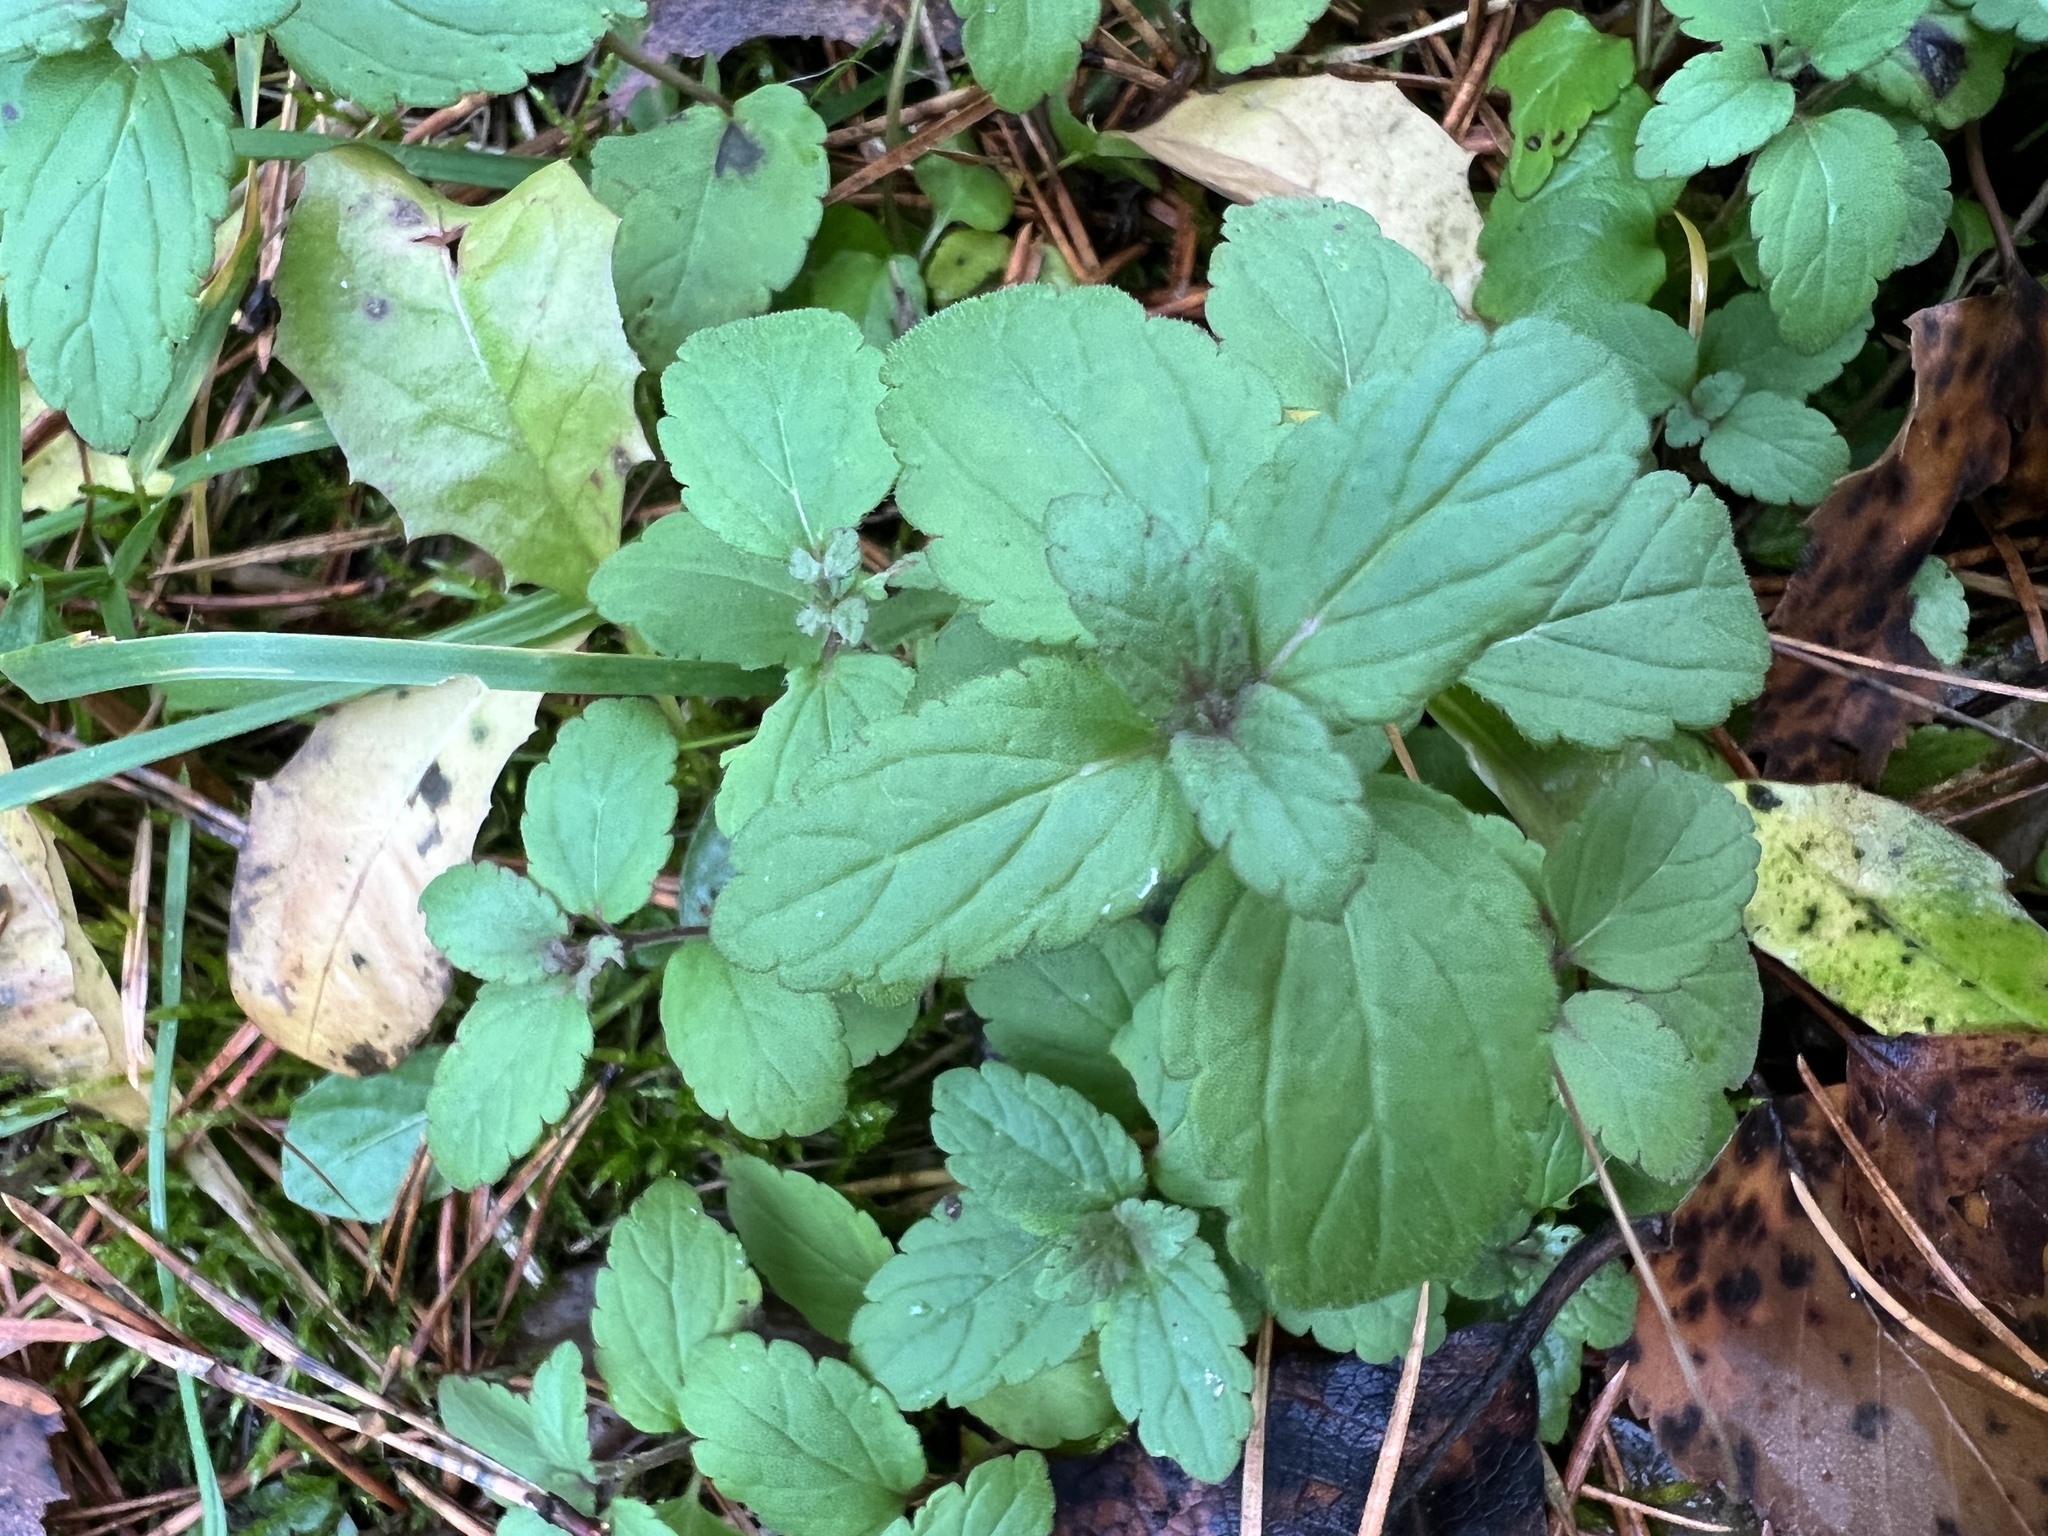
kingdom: Plantae
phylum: Tracheophyta
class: Magnoliopsida
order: Lamiales
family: Plantaginaceae
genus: Veronica
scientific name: Veronica chamaedrys
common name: Germander speedwell
